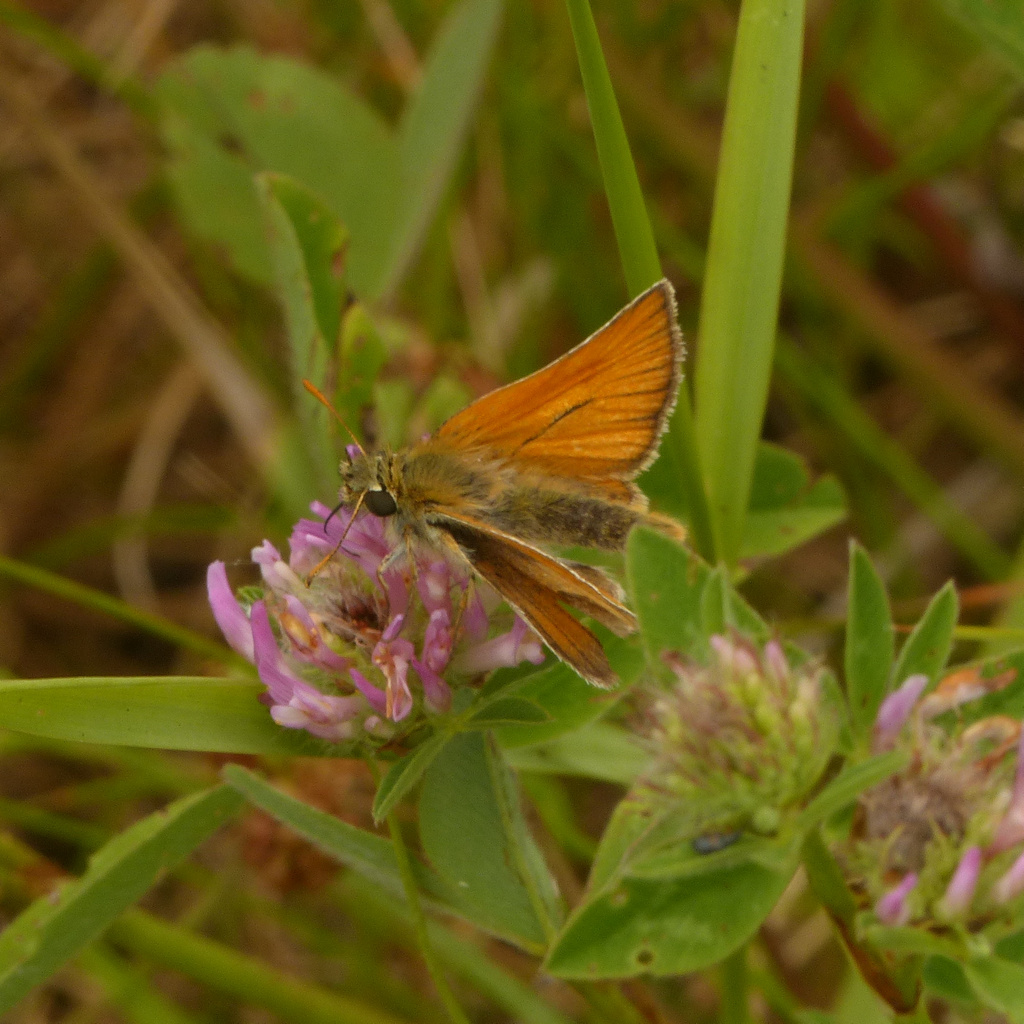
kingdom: Animalia
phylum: Arthropoda
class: Insecta
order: Lepidoptera
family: Hesperiidae
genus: Thymelicus
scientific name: Thymelicus sylvestris
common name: Small skipper
